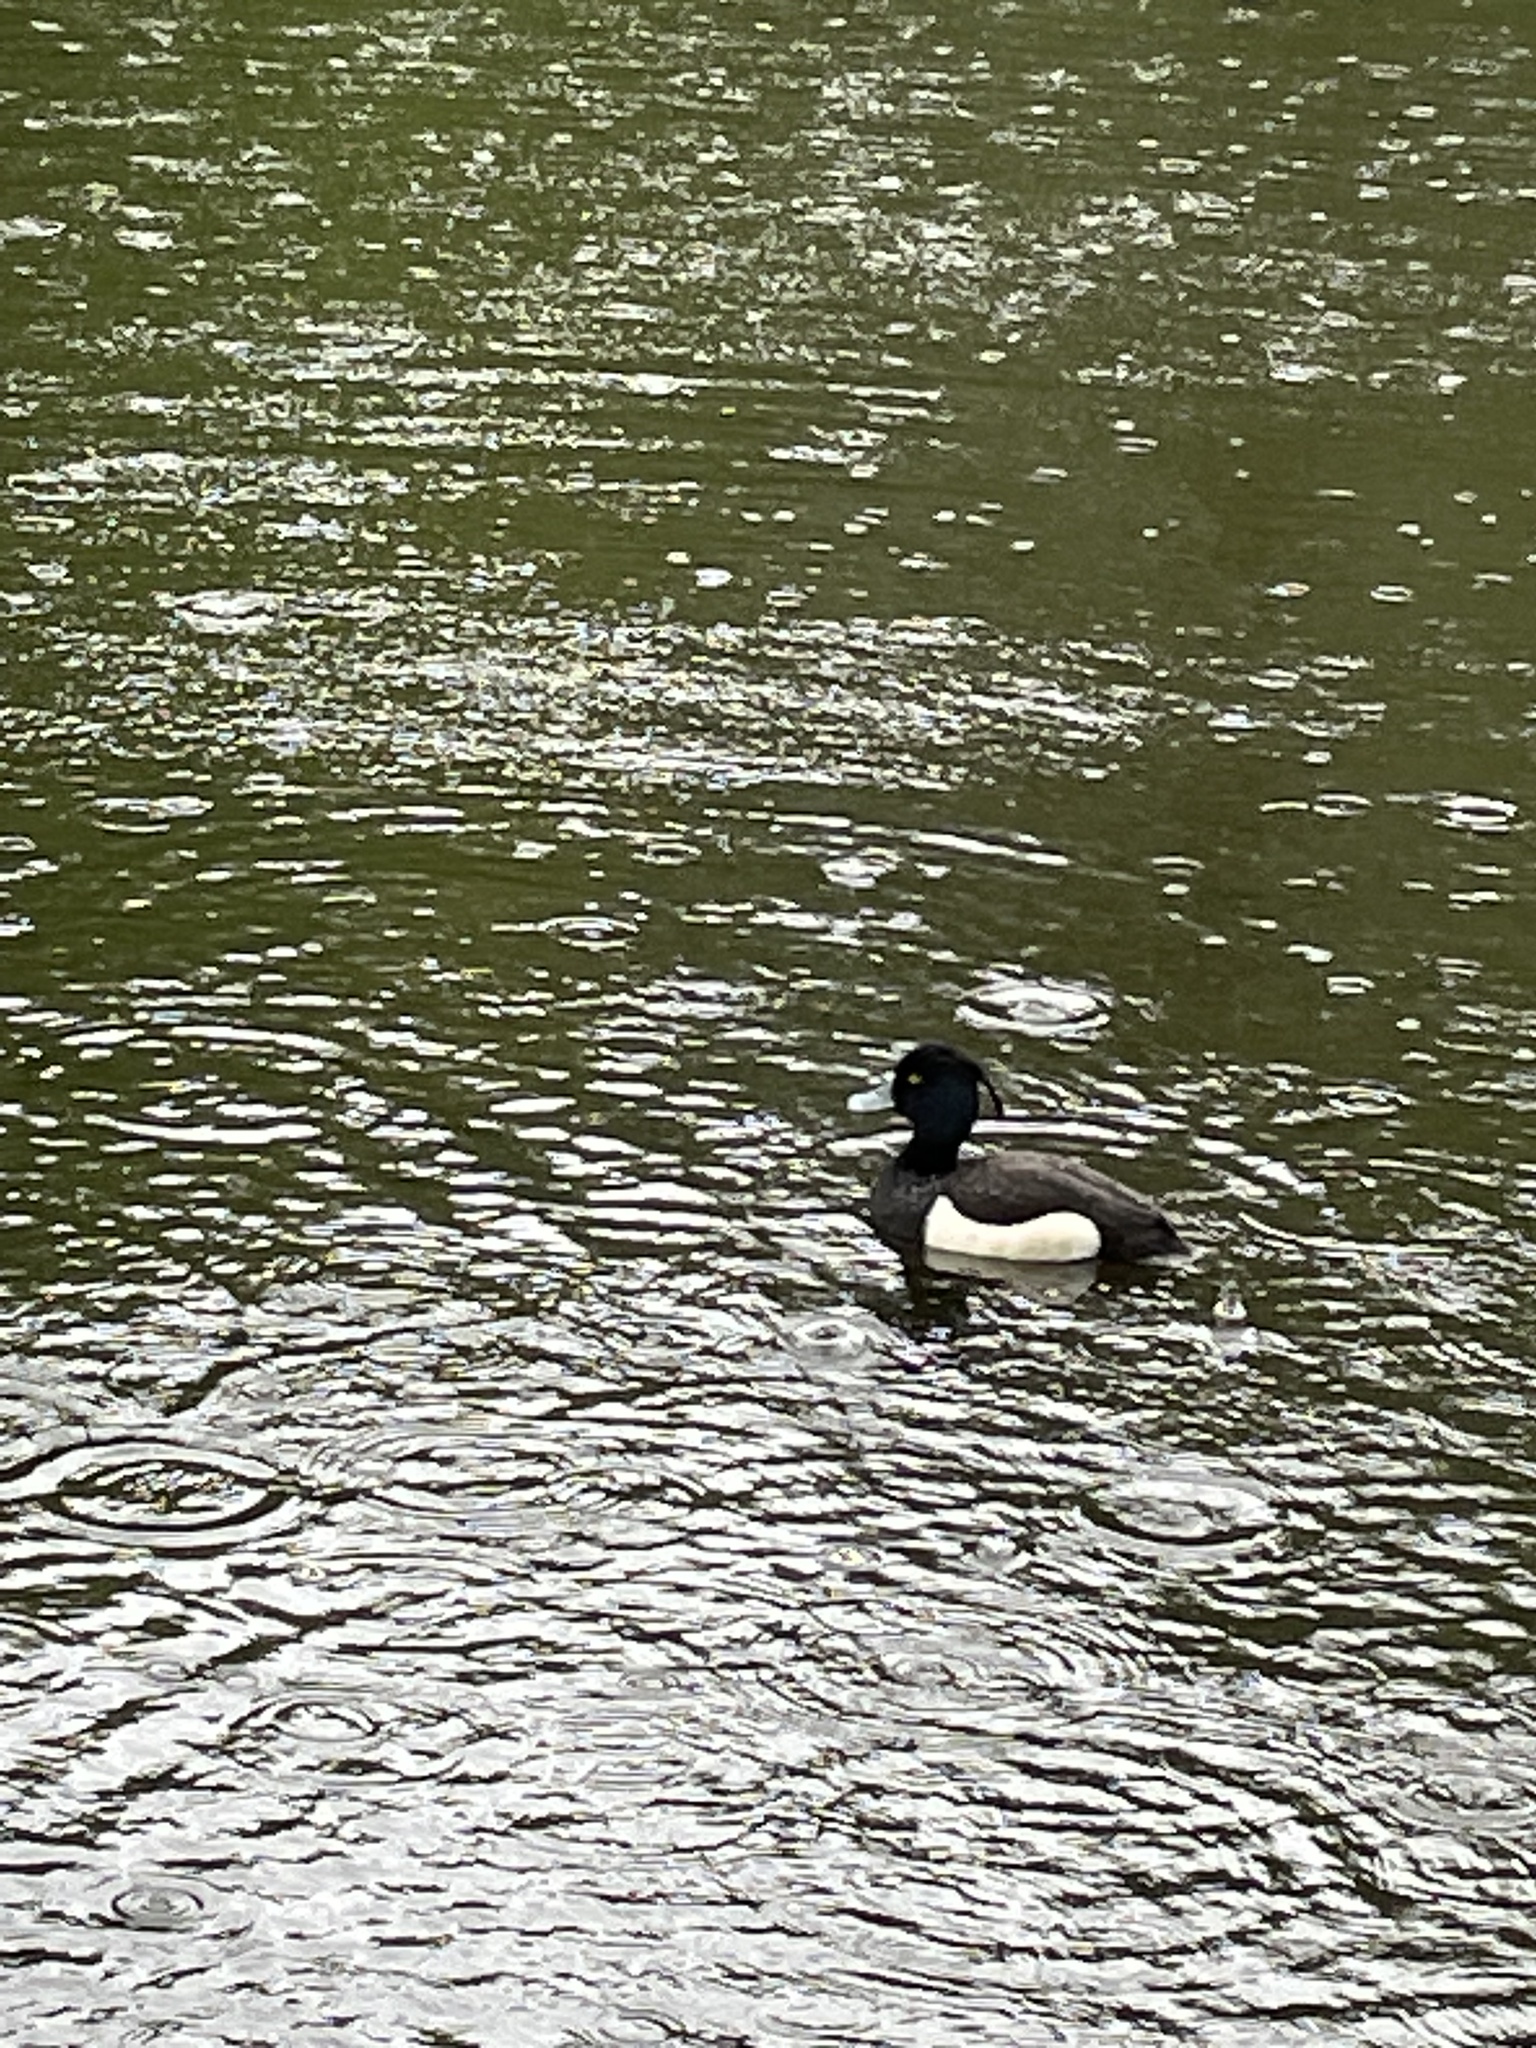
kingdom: Animalia
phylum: Chordata
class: Aves
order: Anseriformes
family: Anatidae
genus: Aythya
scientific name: Aythya fuligula
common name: Tufted duck
